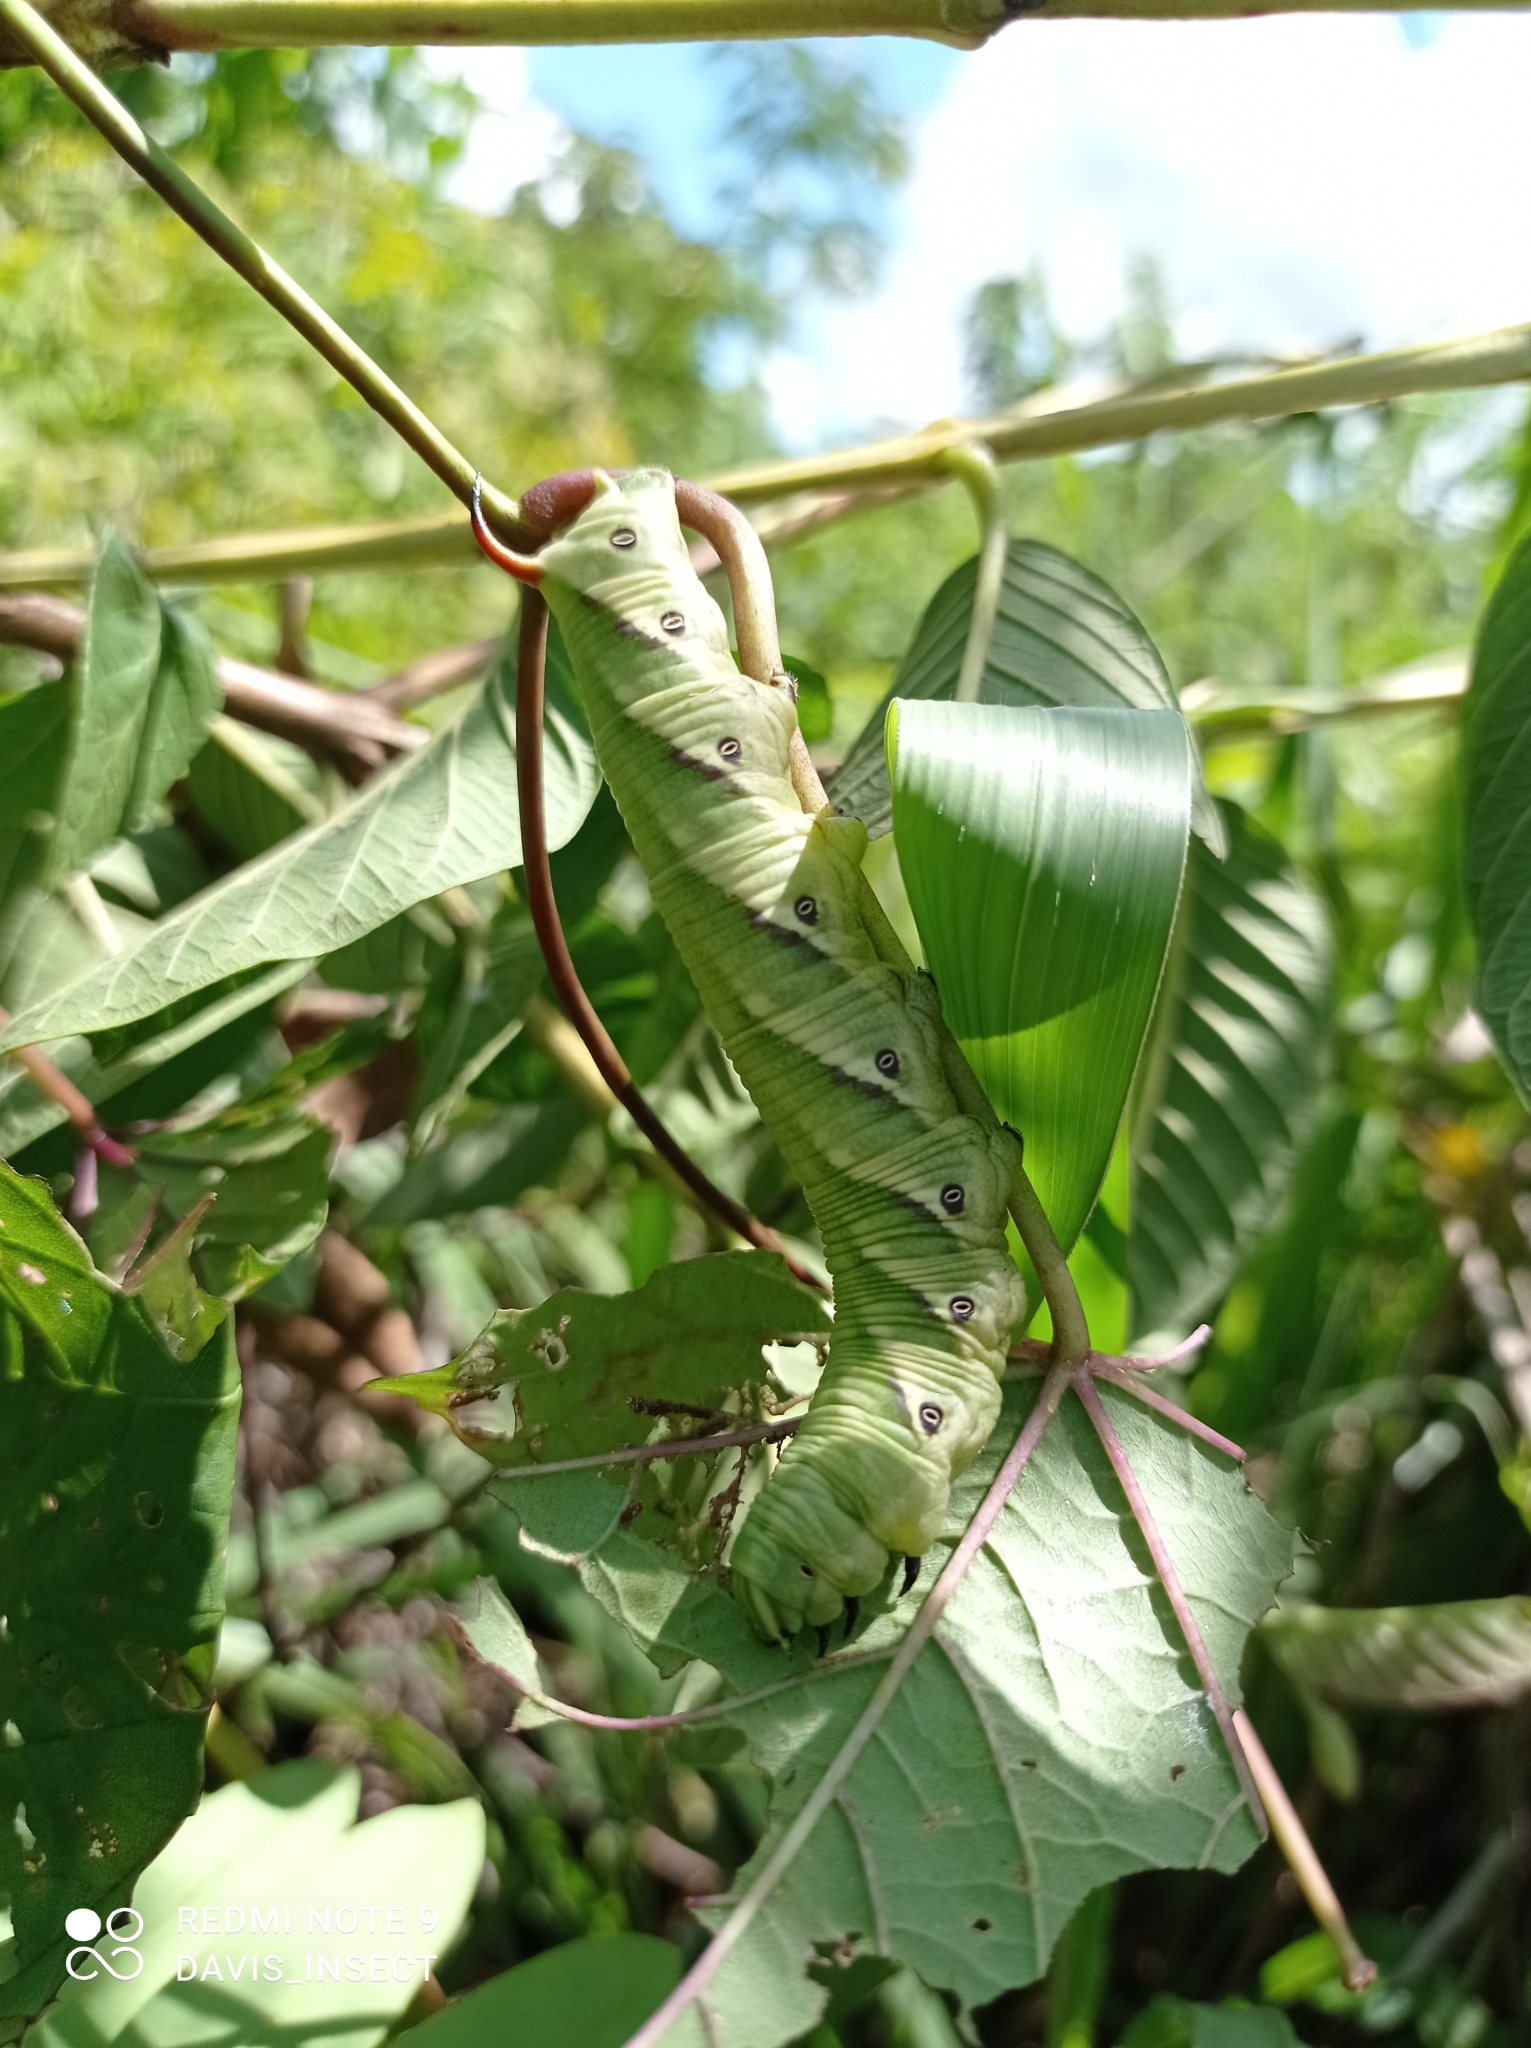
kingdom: Animalia
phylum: Arthropoda
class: Insecta
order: Lepidoptera
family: Sphingidae
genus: Agrius
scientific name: Agrius convolvuli
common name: Convolvulus hawkmoth
